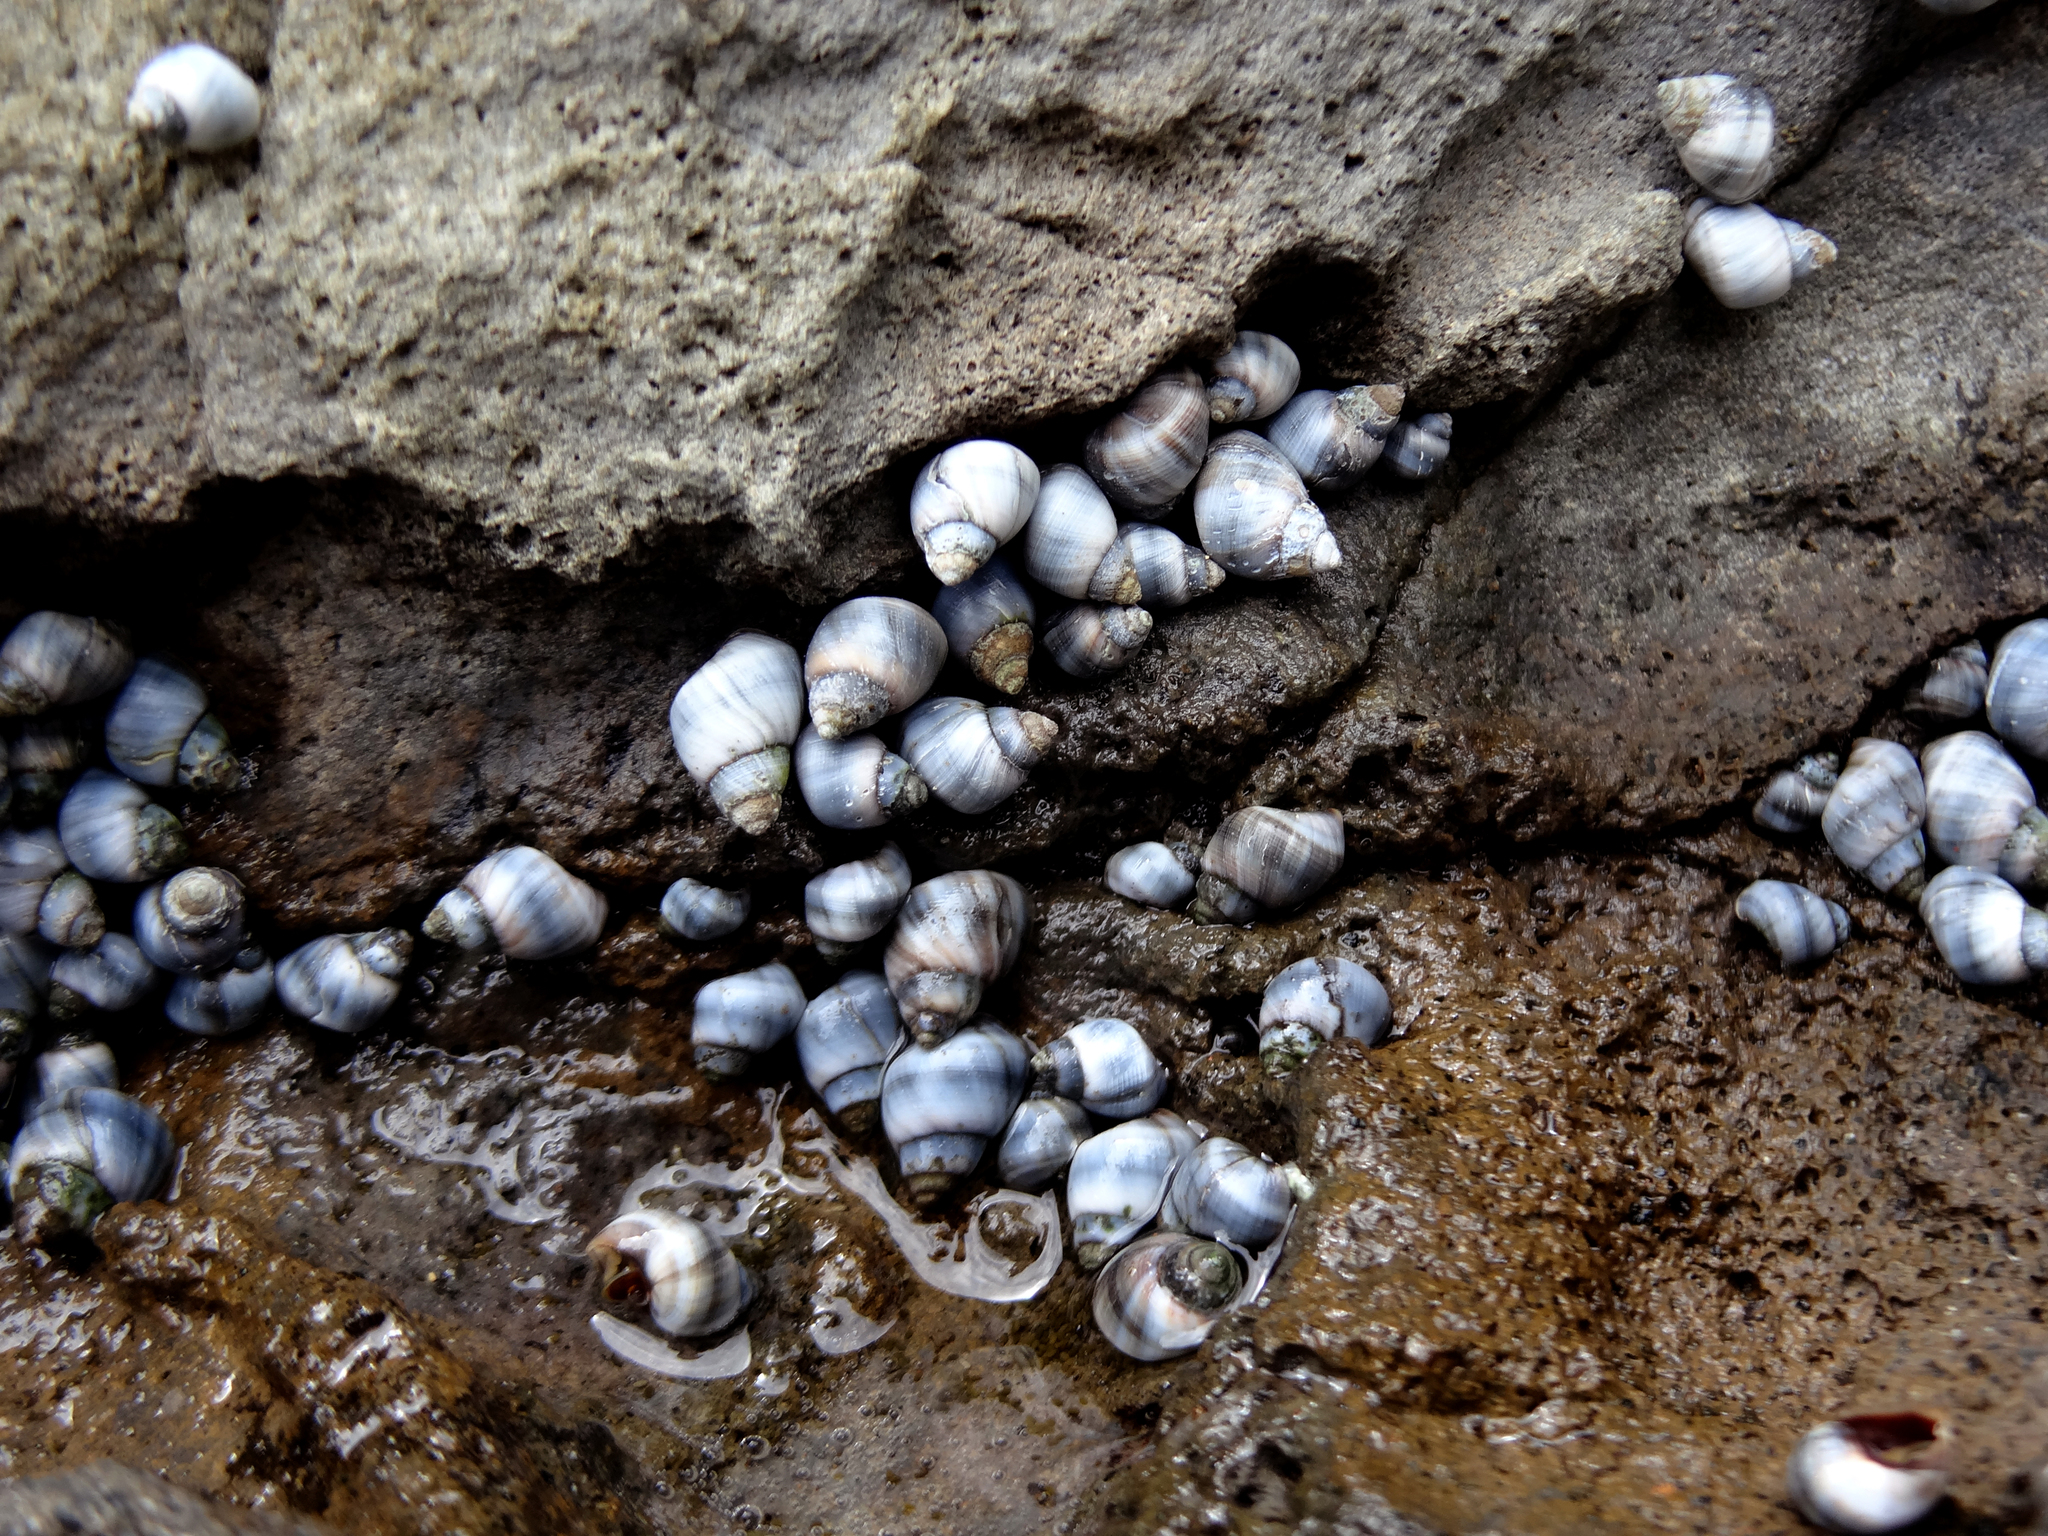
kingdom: Animalia
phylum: Mollusca
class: Gastropoda
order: Littorinimorpha
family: Littorinidae
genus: Austrolittorina
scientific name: Austrolittorina fernandezensis
